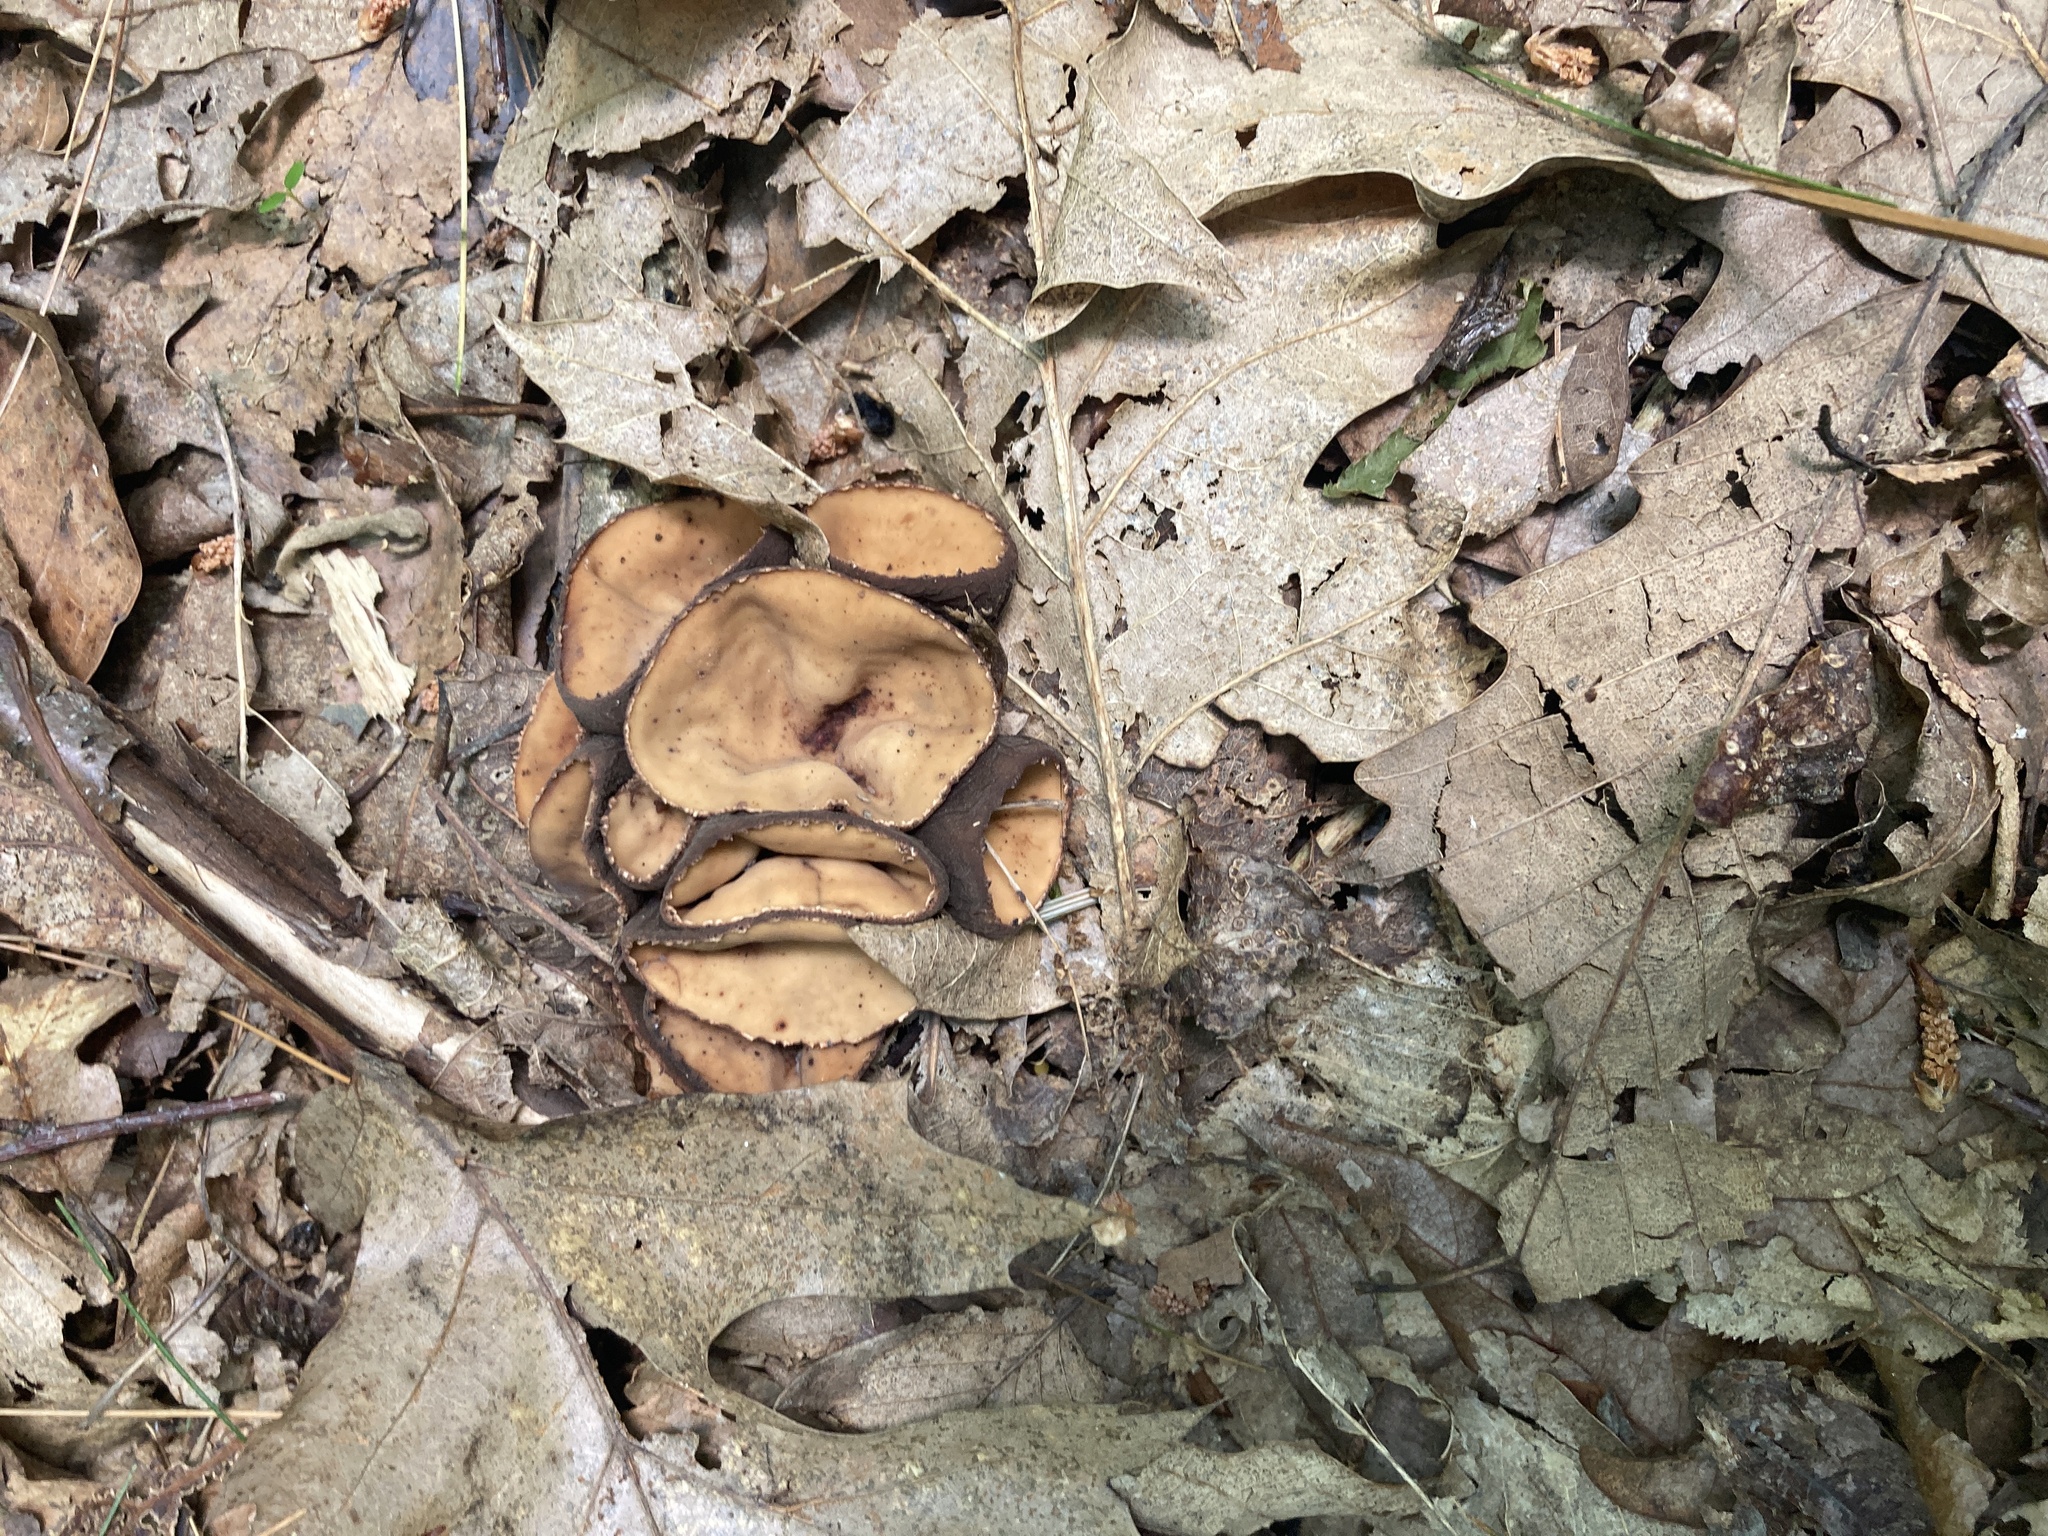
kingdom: Fungi
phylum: Ascomycota
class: Pezizomycetes
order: Pezizales
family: Sarcosomataceae
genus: Galiella
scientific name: Galiella rufa
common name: Hairy rubber cup
